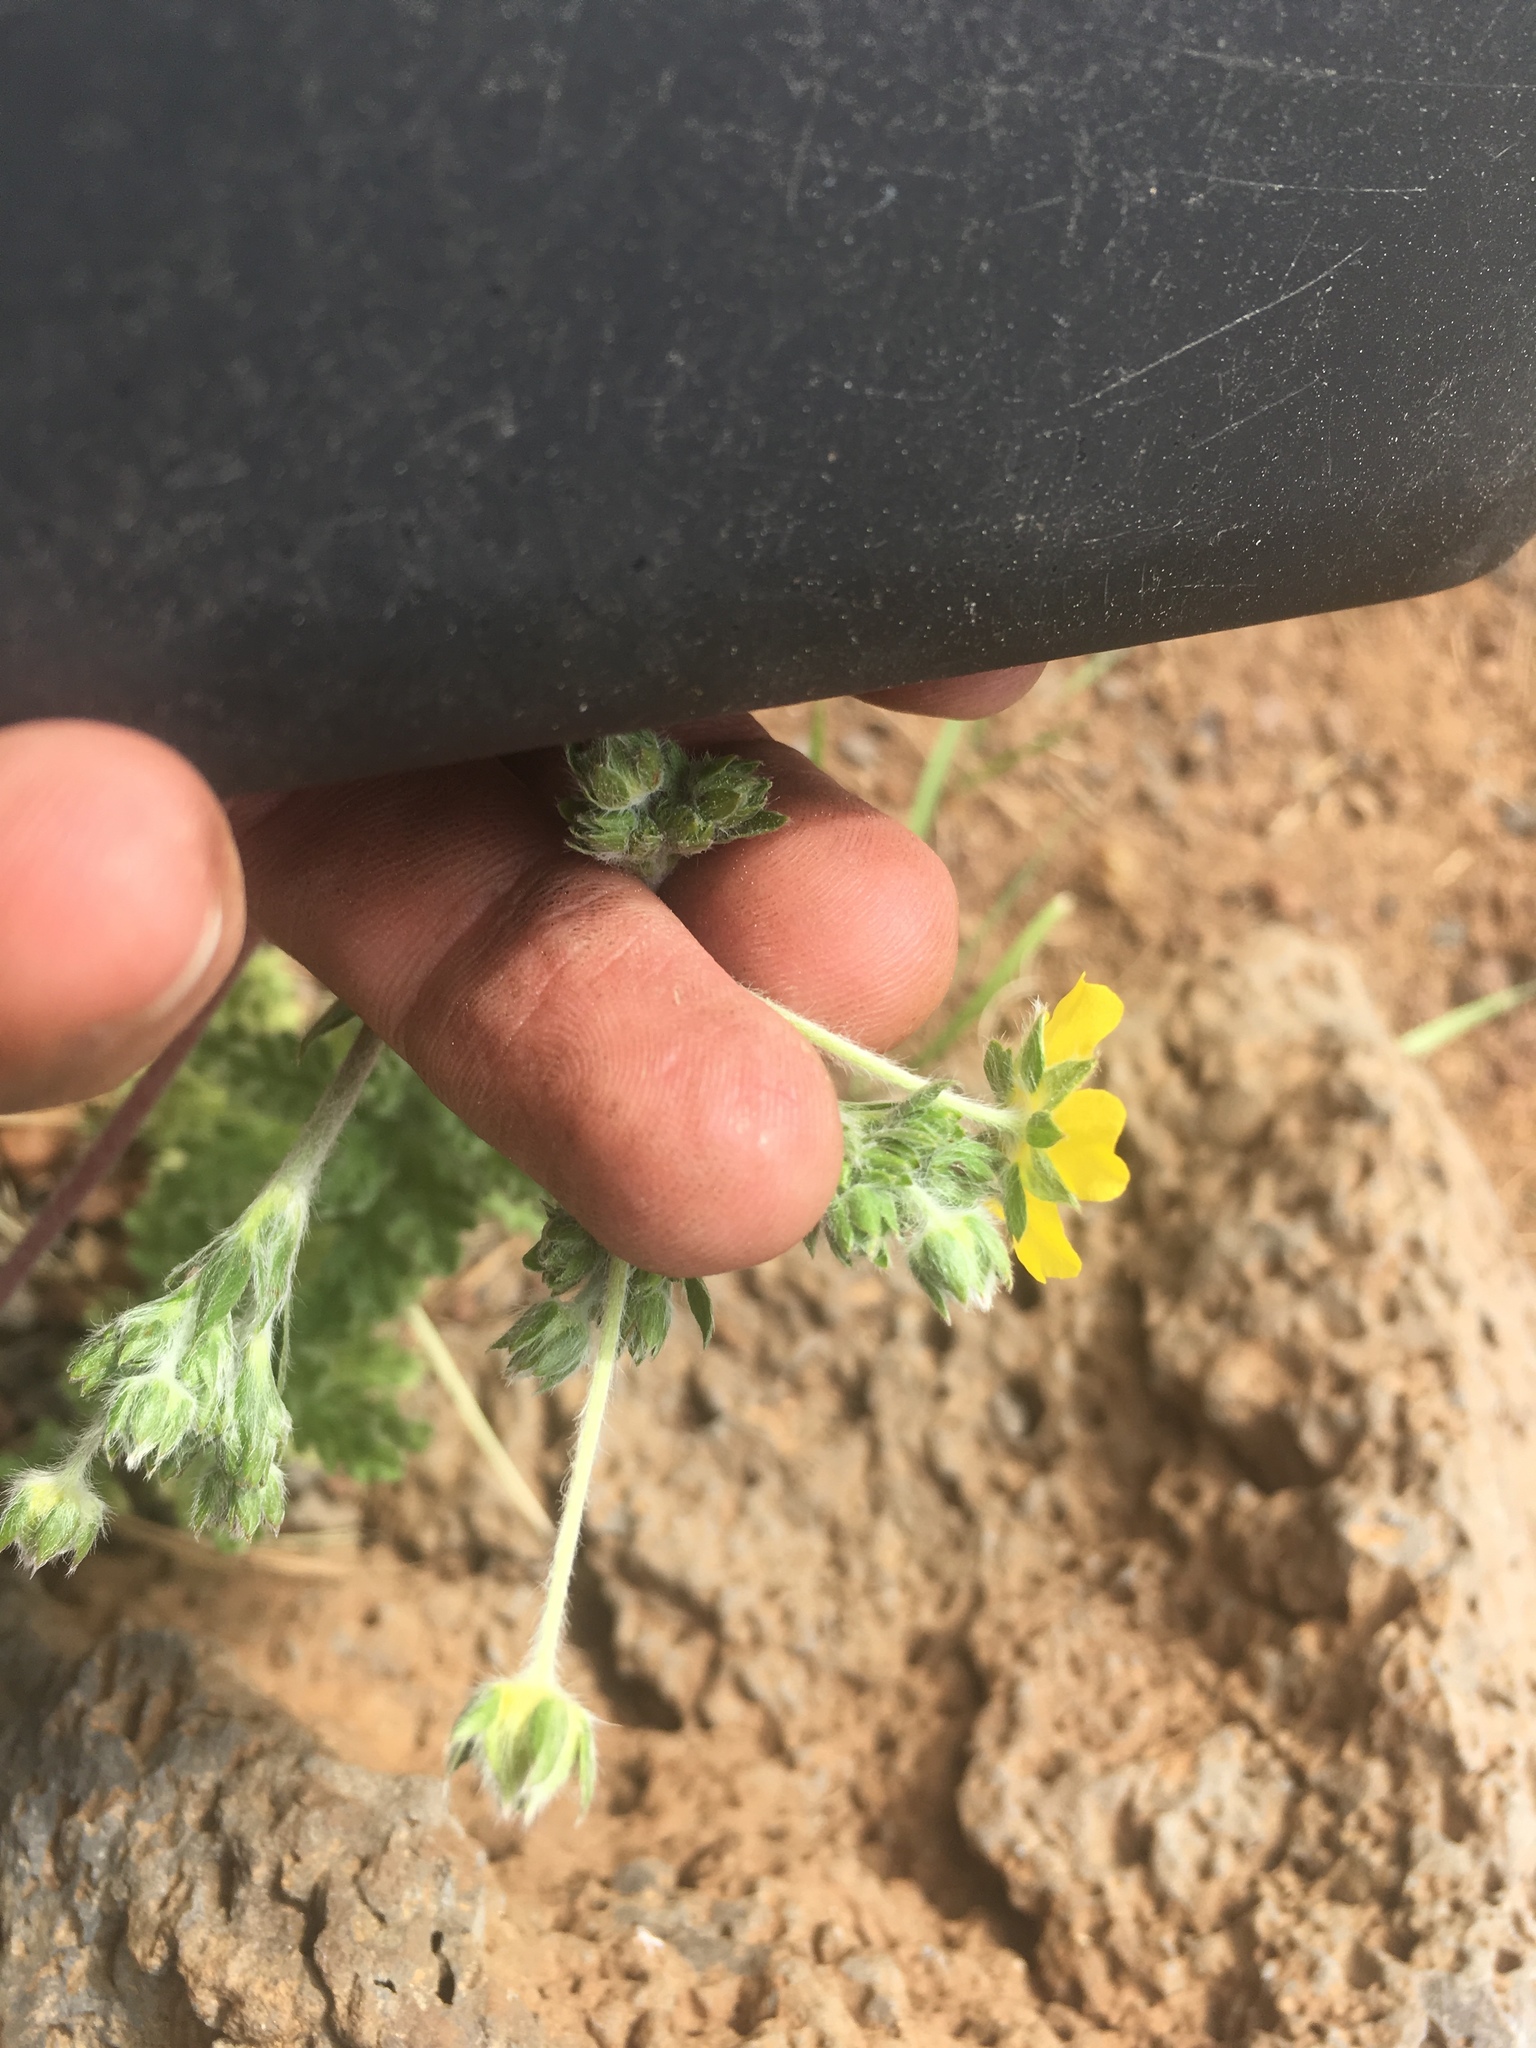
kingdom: Plantae
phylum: Tracheophyta
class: Magnoliopsida
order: Rosales
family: Rosaceae
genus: Potentilla
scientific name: Potentilla crinita
